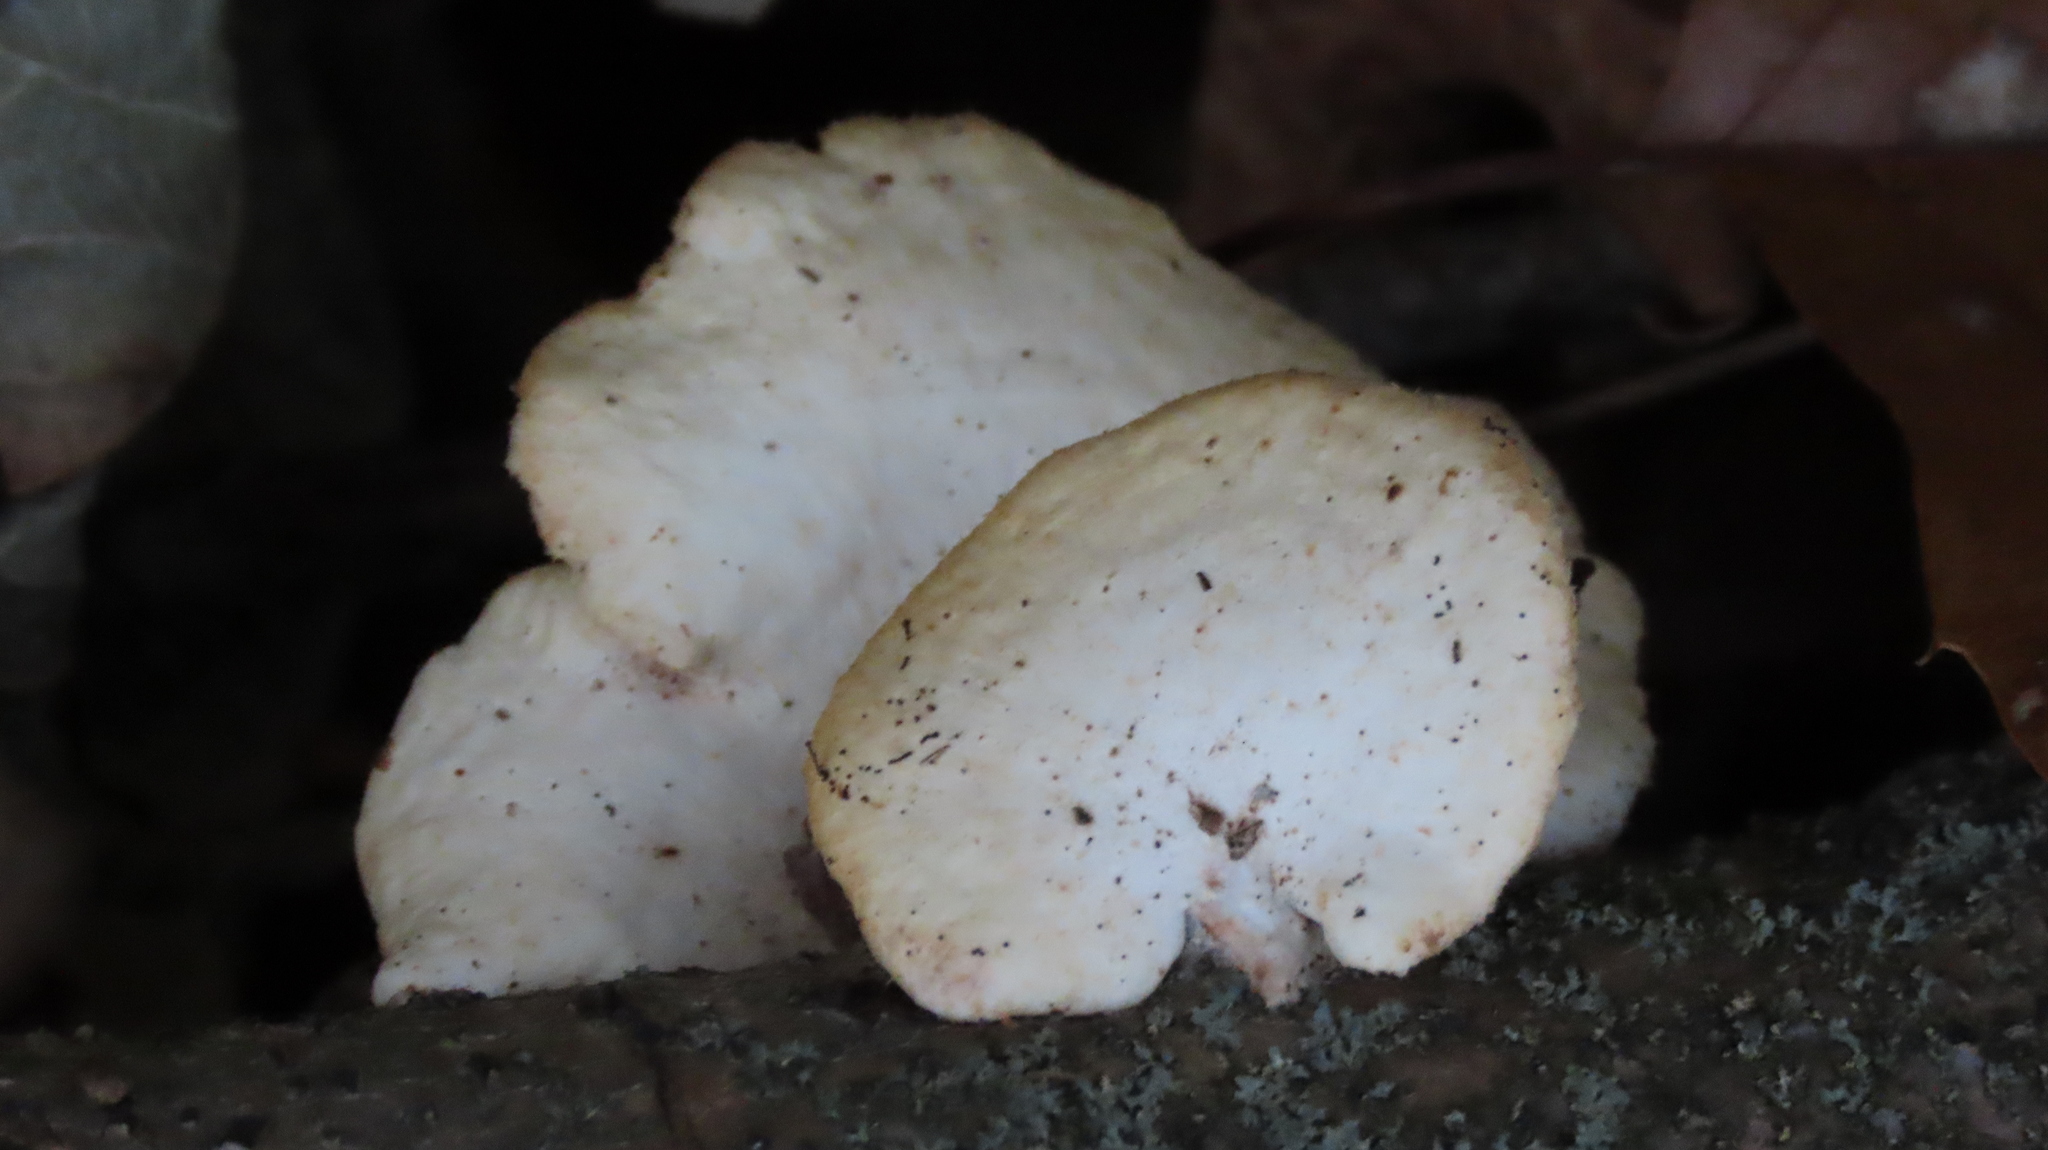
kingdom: Fungi
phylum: Basidiomycota
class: Agaricomycetes
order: Polyporales
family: Polyporaceae
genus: Neofavolus
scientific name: Neofavolus alveolaris
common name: Hexagonal-pored polypore
